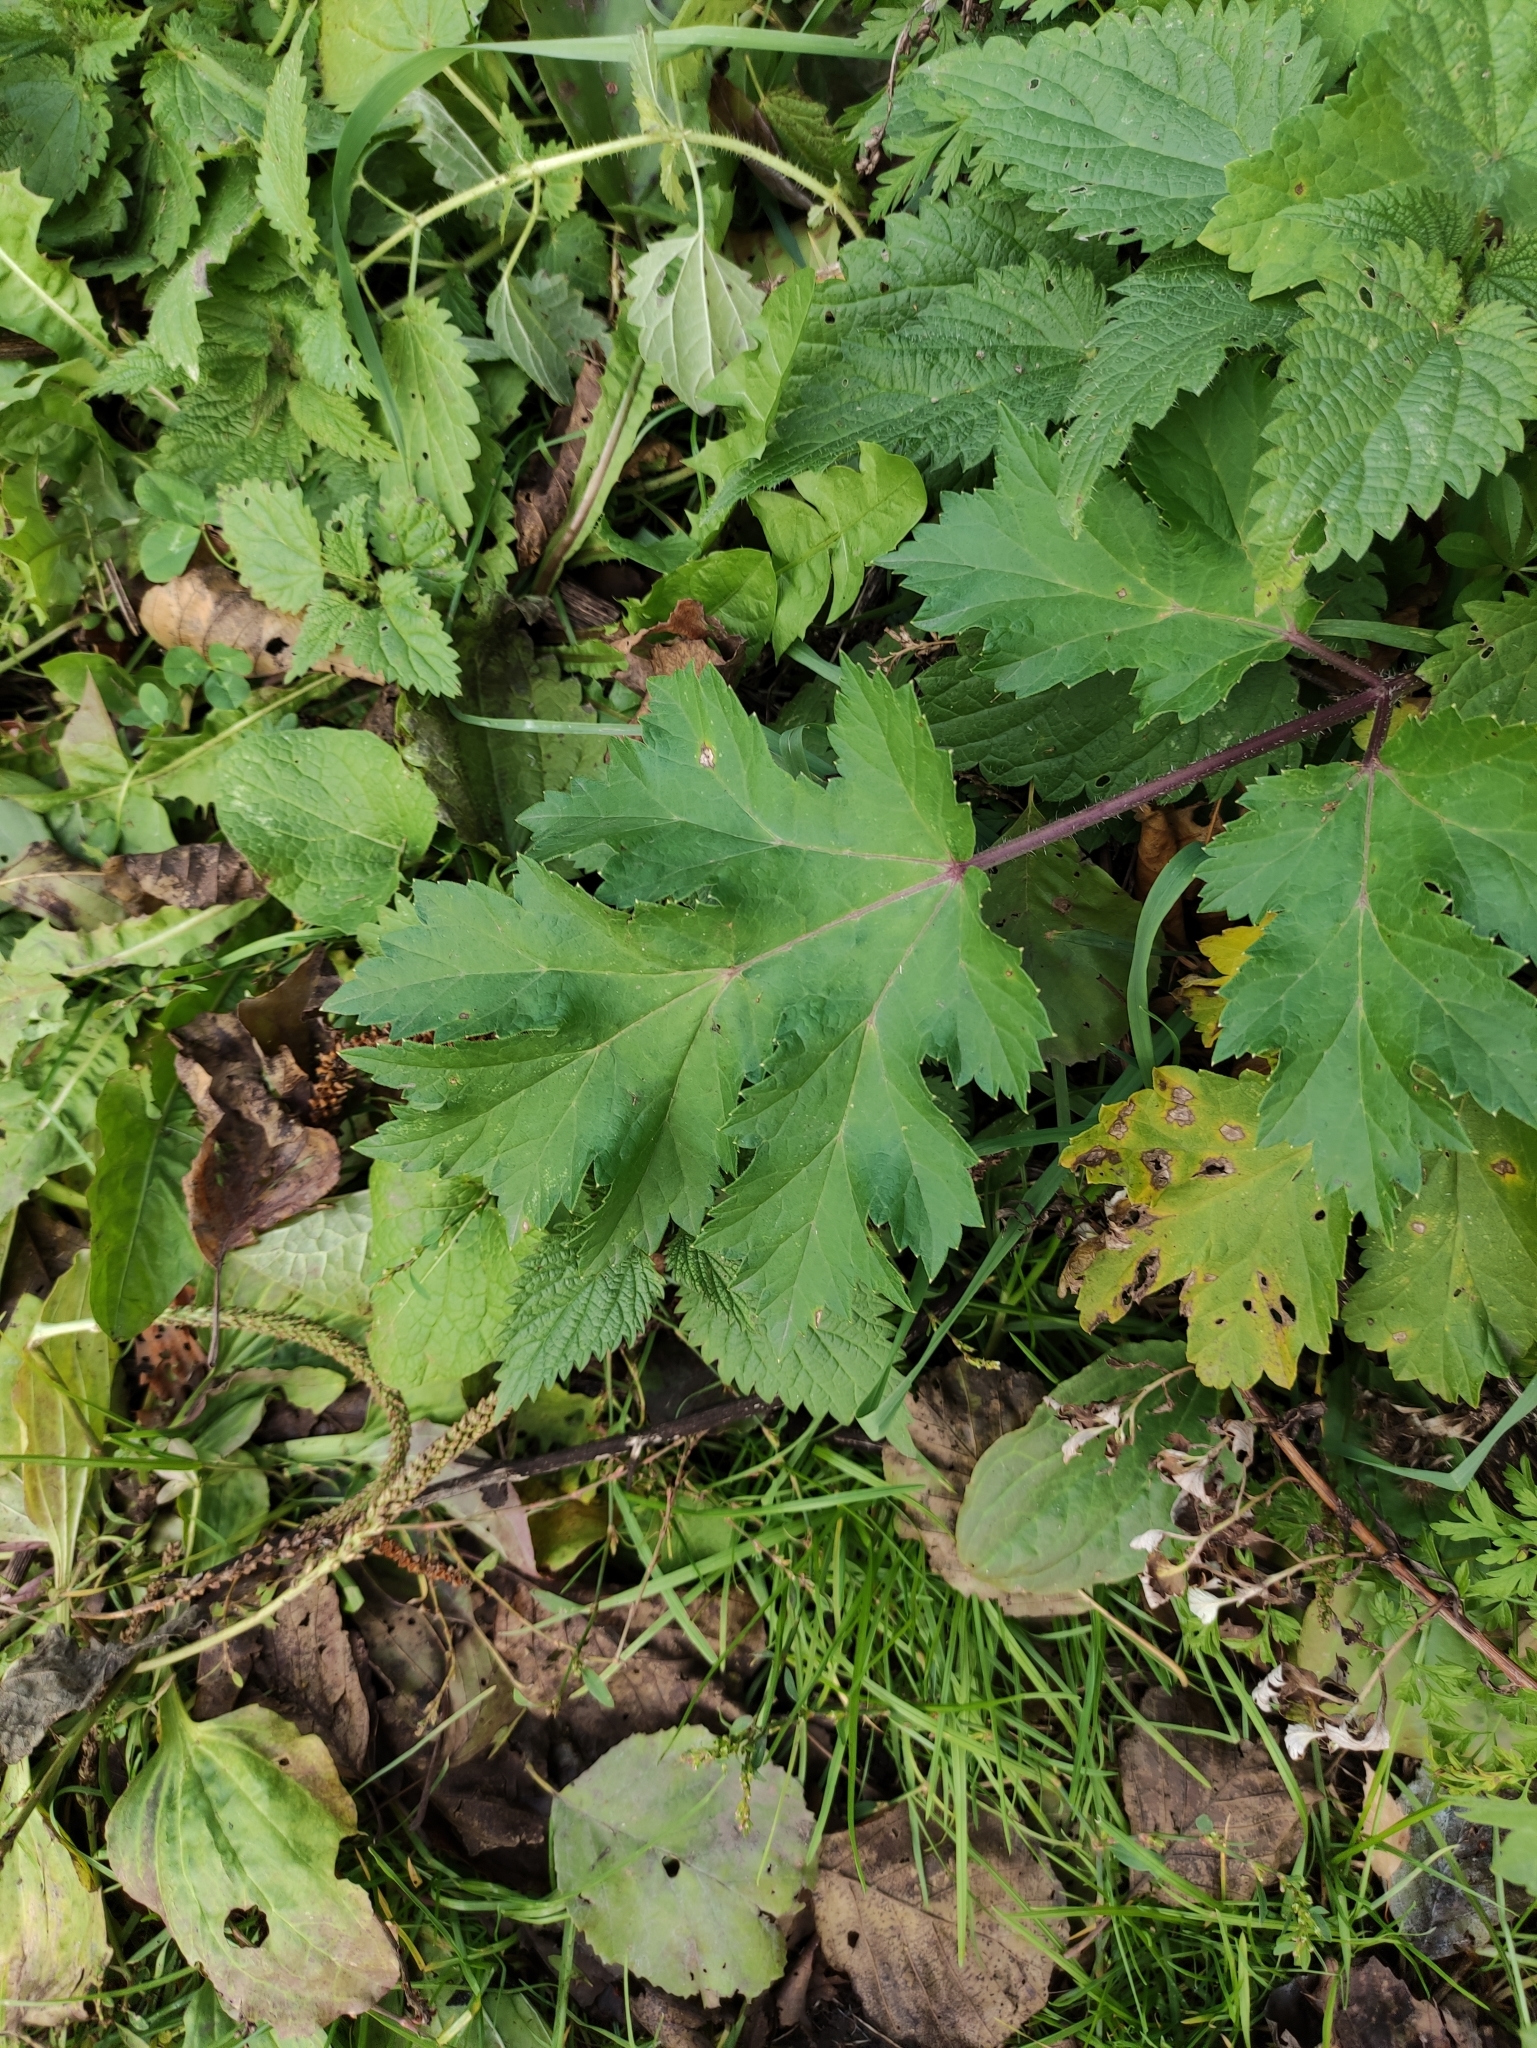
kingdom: Plantae
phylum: Tracheophyta
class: Magnoliopsida
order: Apiales
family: Apiaceae
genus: Heracleum
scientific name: Heracleum sosnowskyi
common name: Sosnowsky's hogweed
